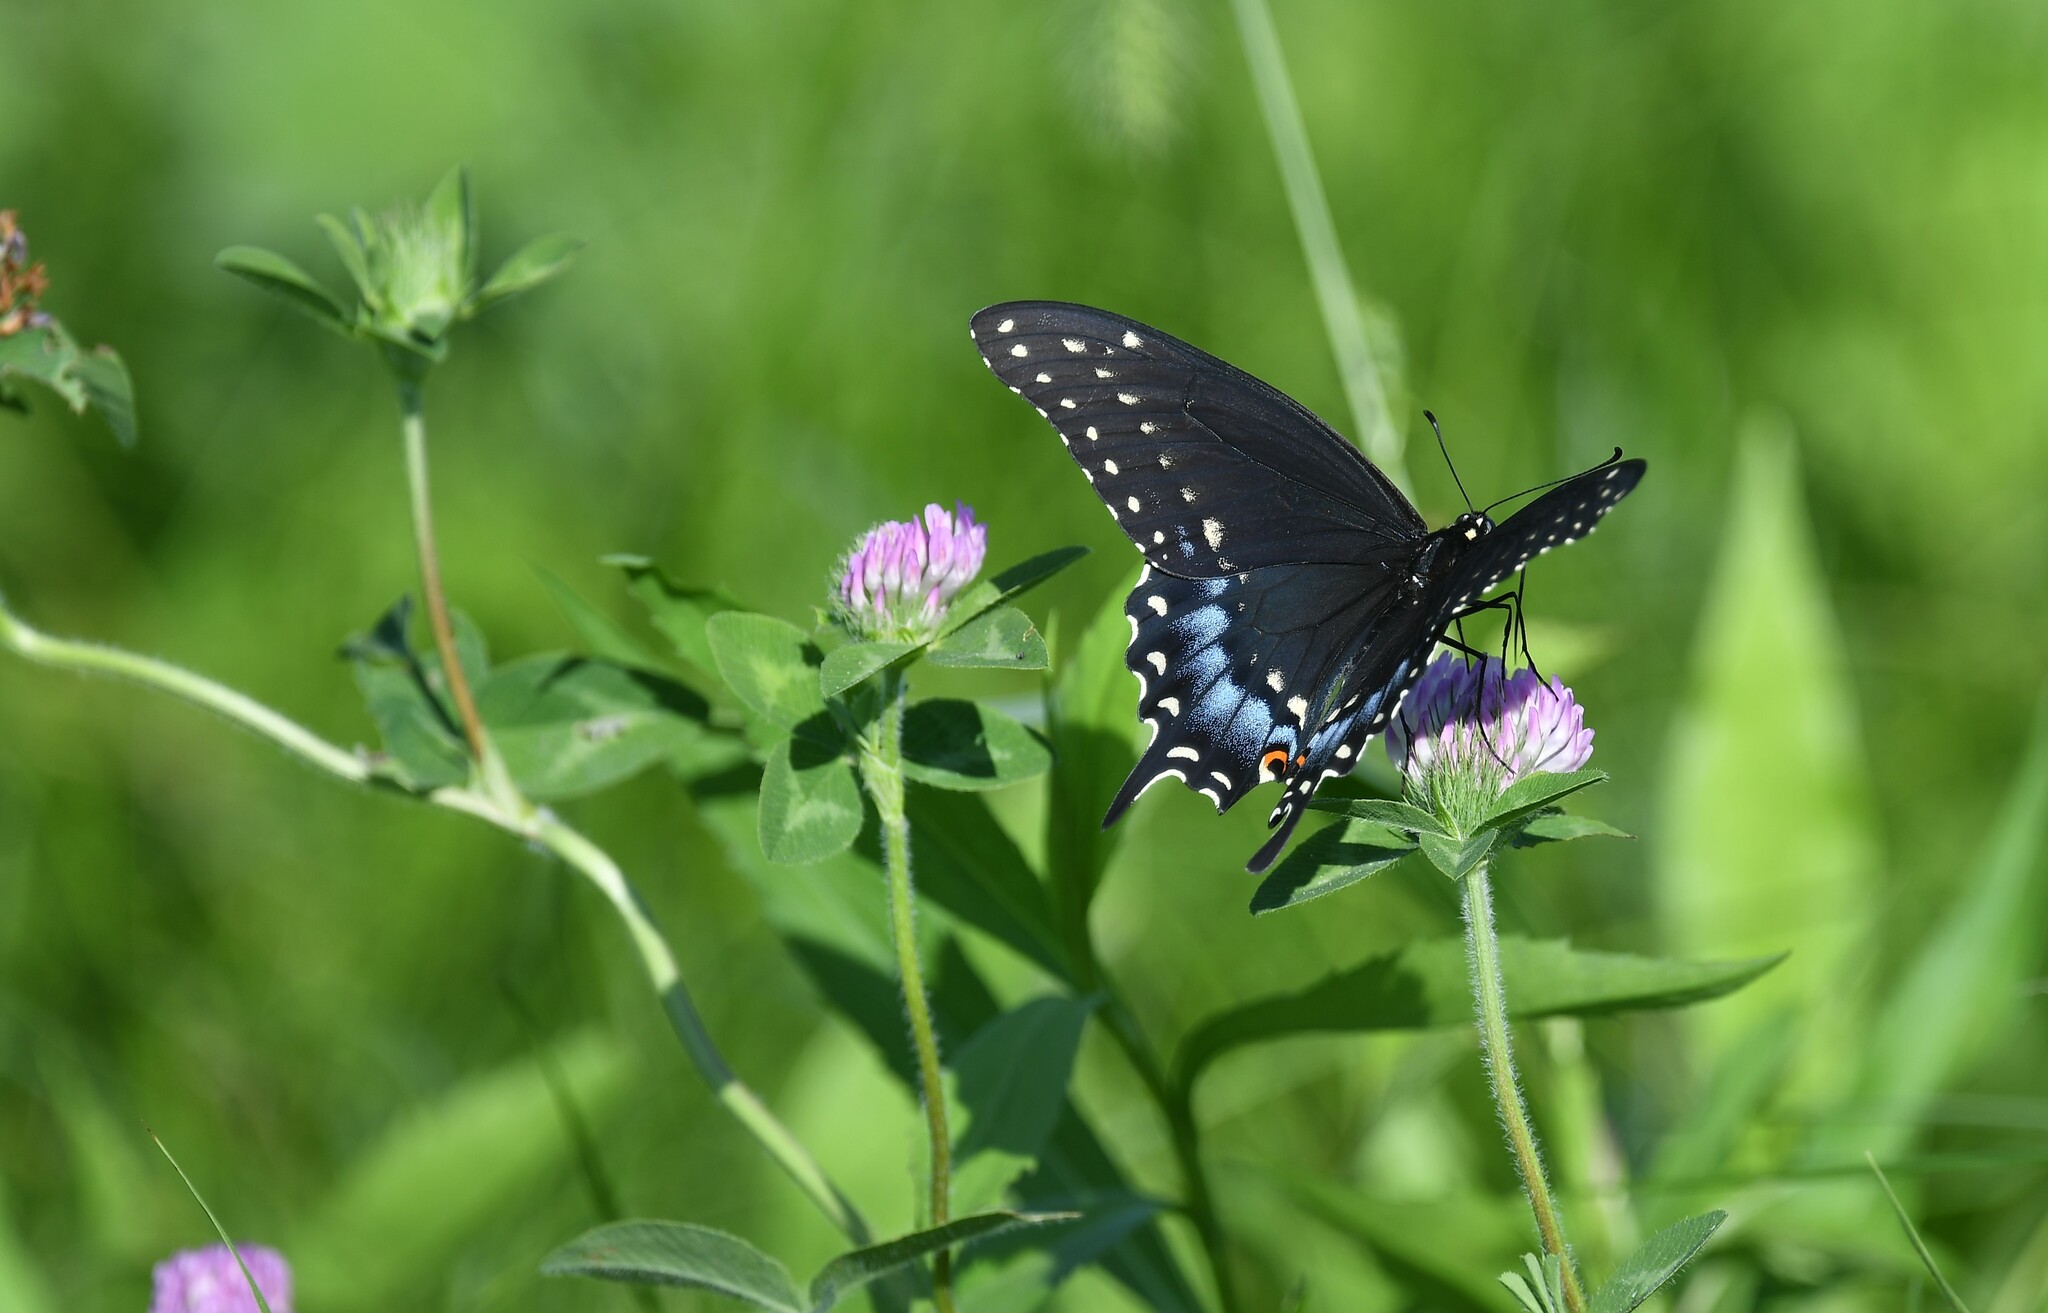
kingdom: Animalia
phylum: Arthropoda
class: Insecta
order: Lepidoptera
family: Papilionidae
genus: Papilio
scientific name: Papilio polyxenes
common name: Black swallowtail
